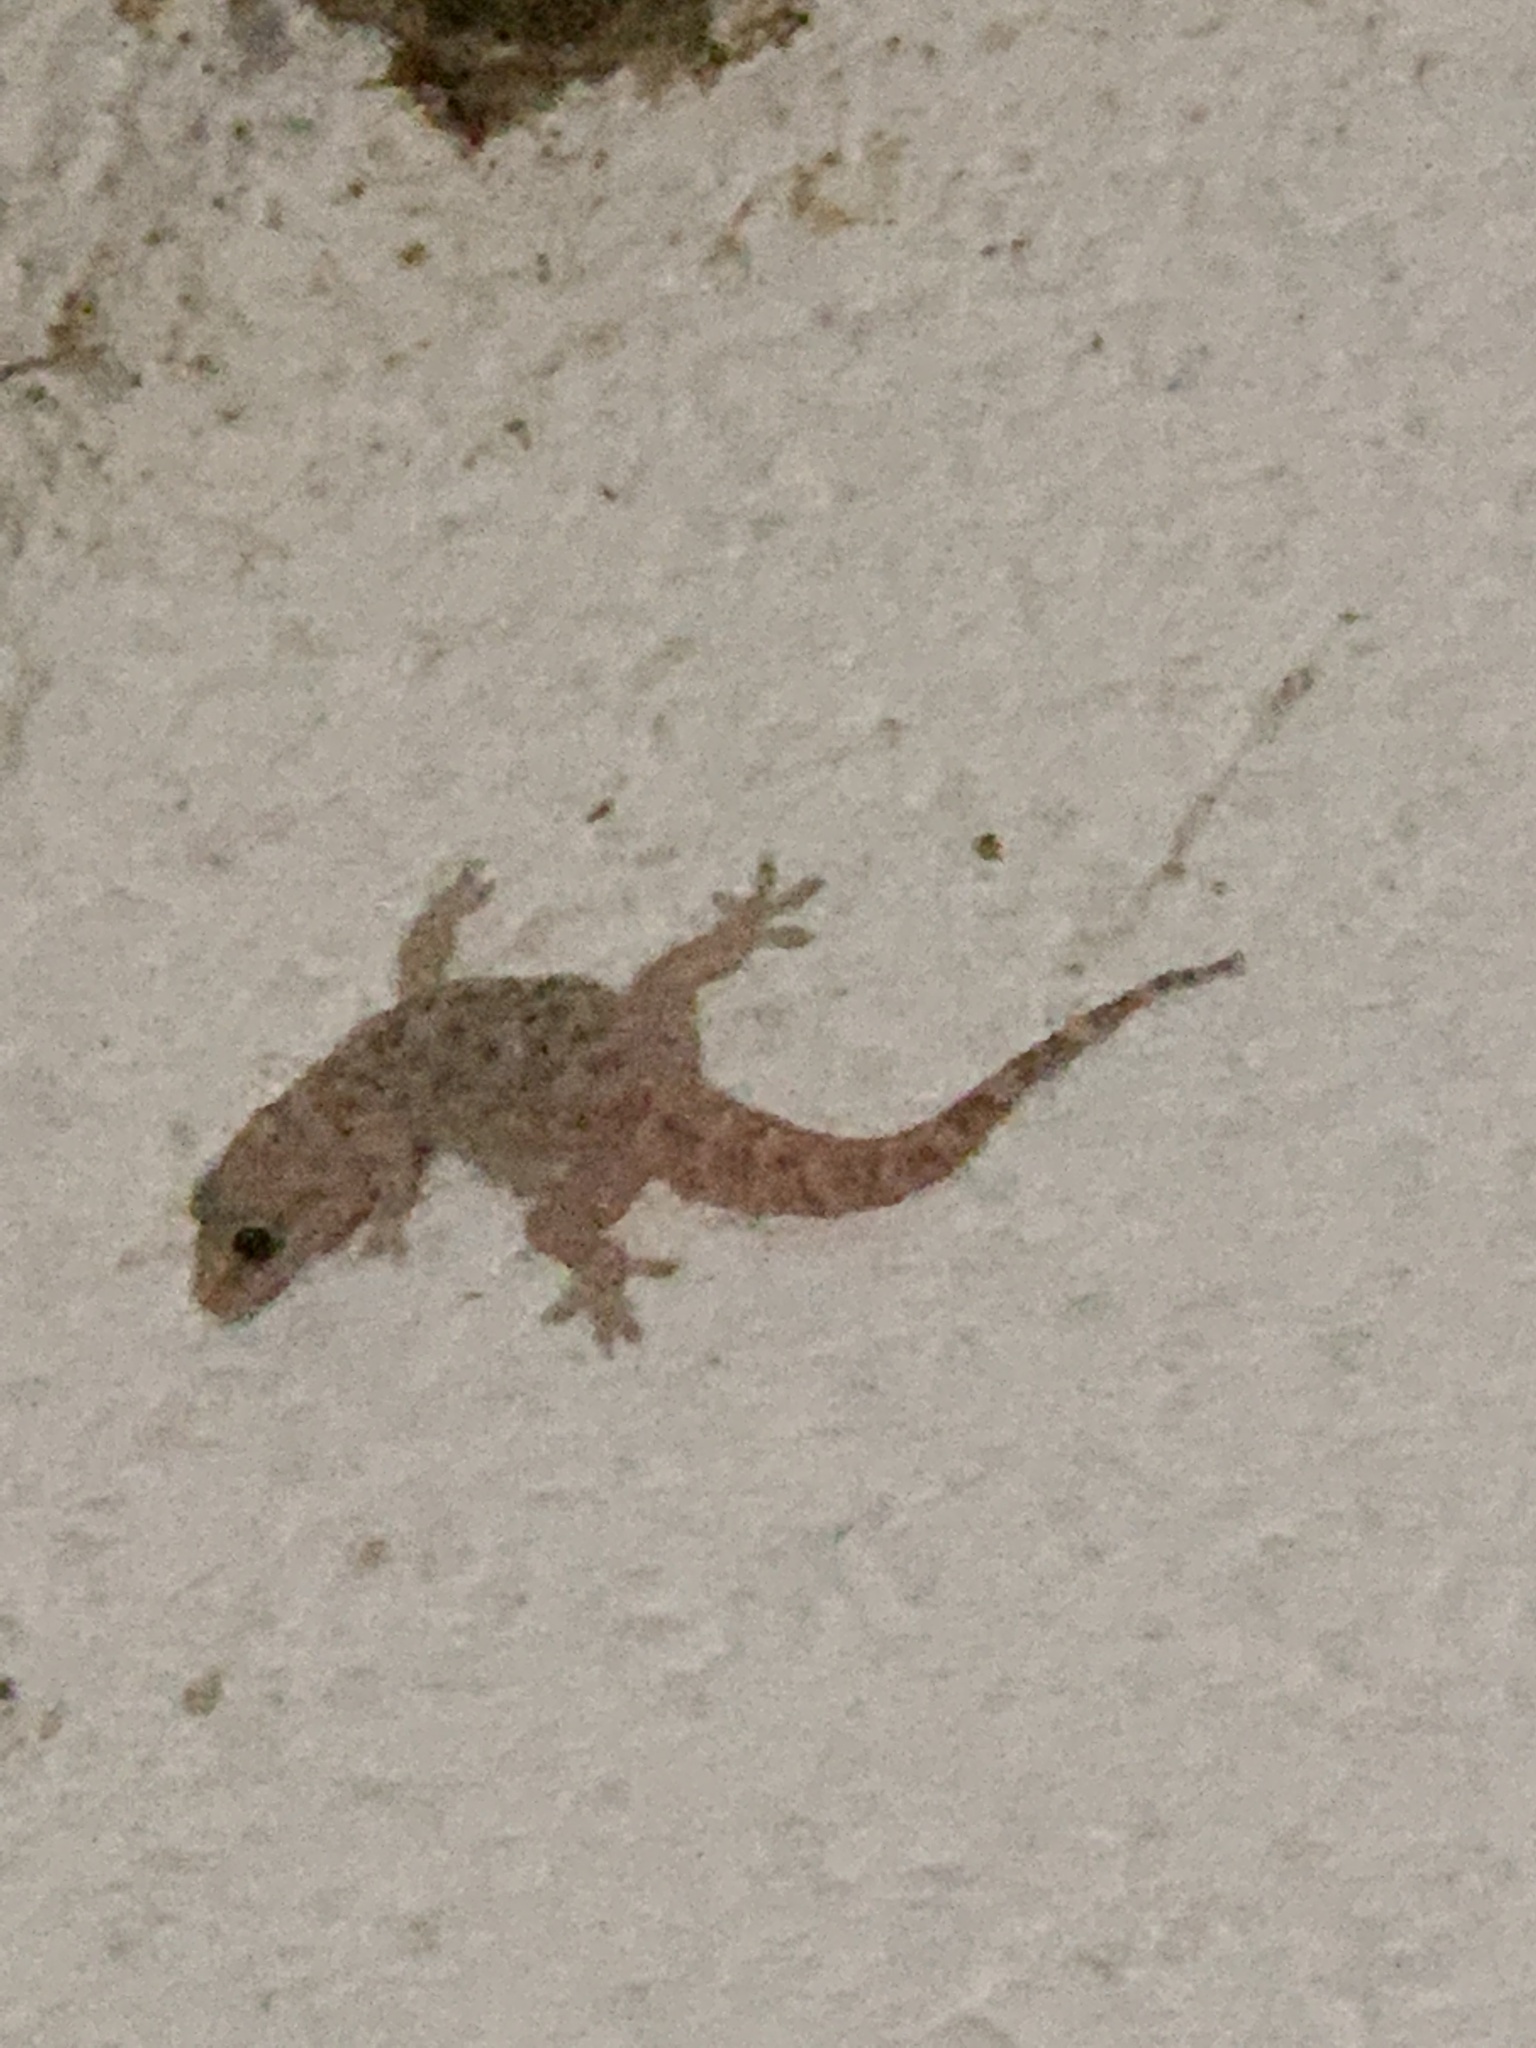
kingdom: Animalia
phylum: Chordata
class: Squamata
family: Gekkonidae
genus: Hemidactylus
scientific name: Hemidactylus turcicus
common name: Turkish gecko
